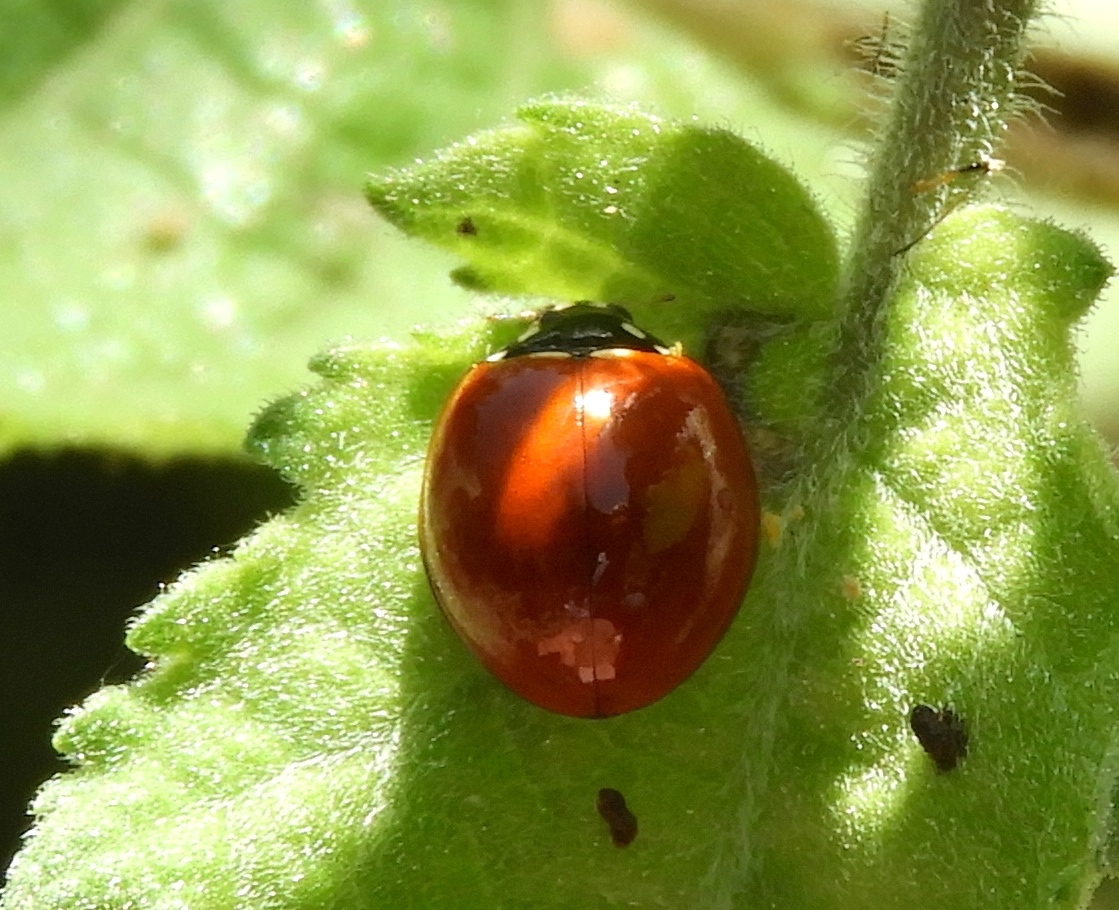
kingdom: Animalia
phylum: Arthropoda
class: Insecta
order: Coleoptera
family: Coccinellidae
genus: Cycloneda
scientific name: Cycloneda sanguinea
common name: Ladybird beetle
